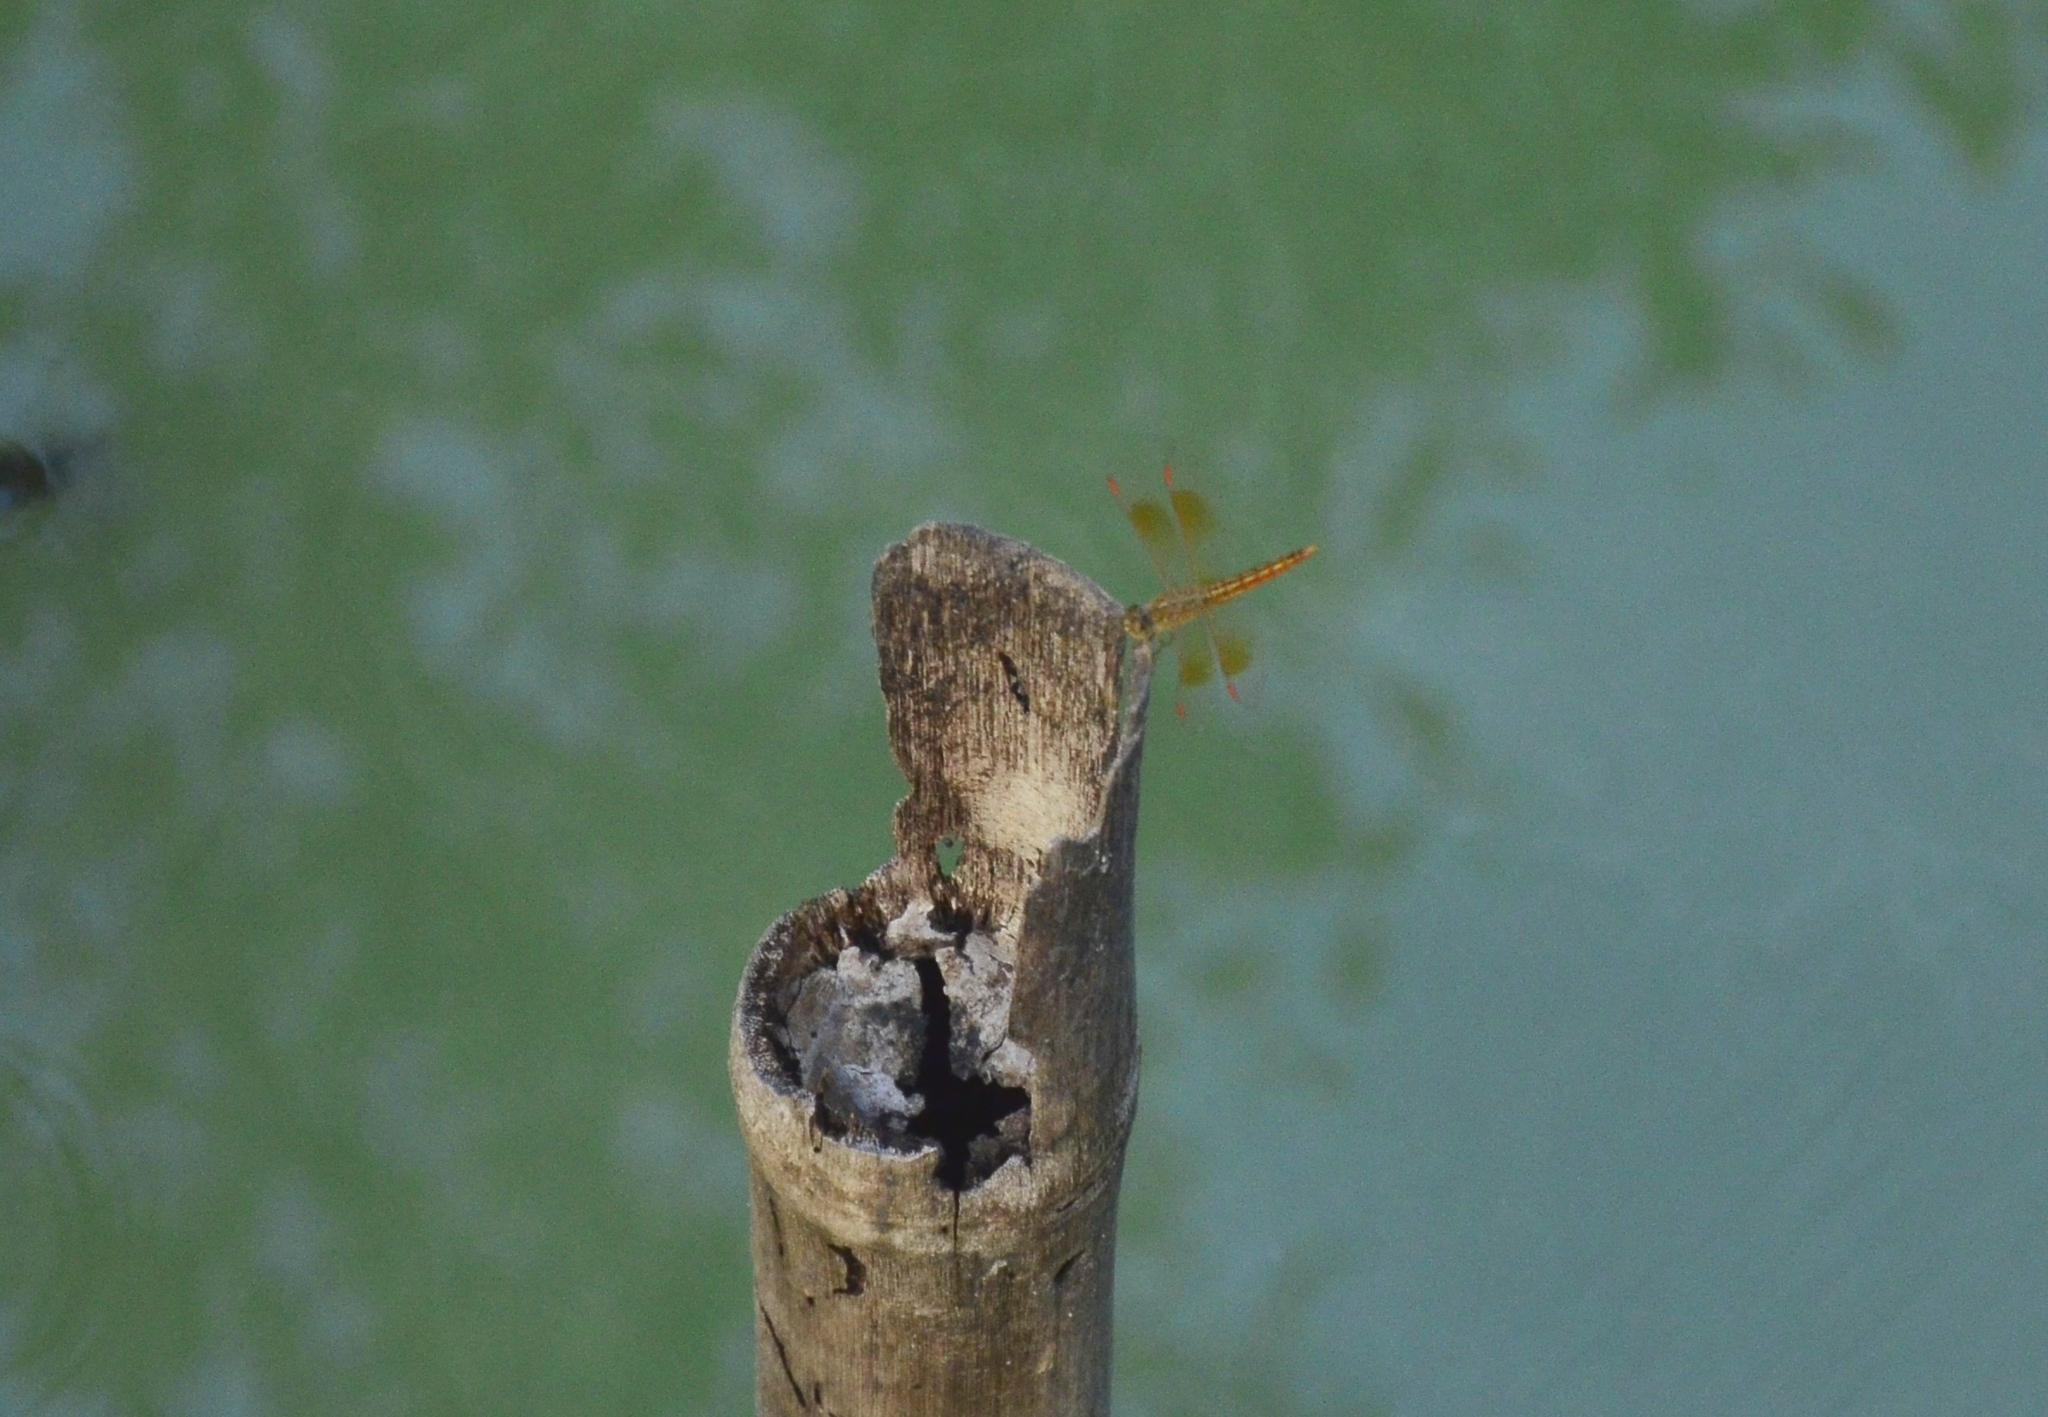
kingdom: Animalia
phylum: Arthropoda
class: Insecta
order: Odonata
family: Libellulidae
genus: Brachythemis
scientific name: Brachythemis contaminata
